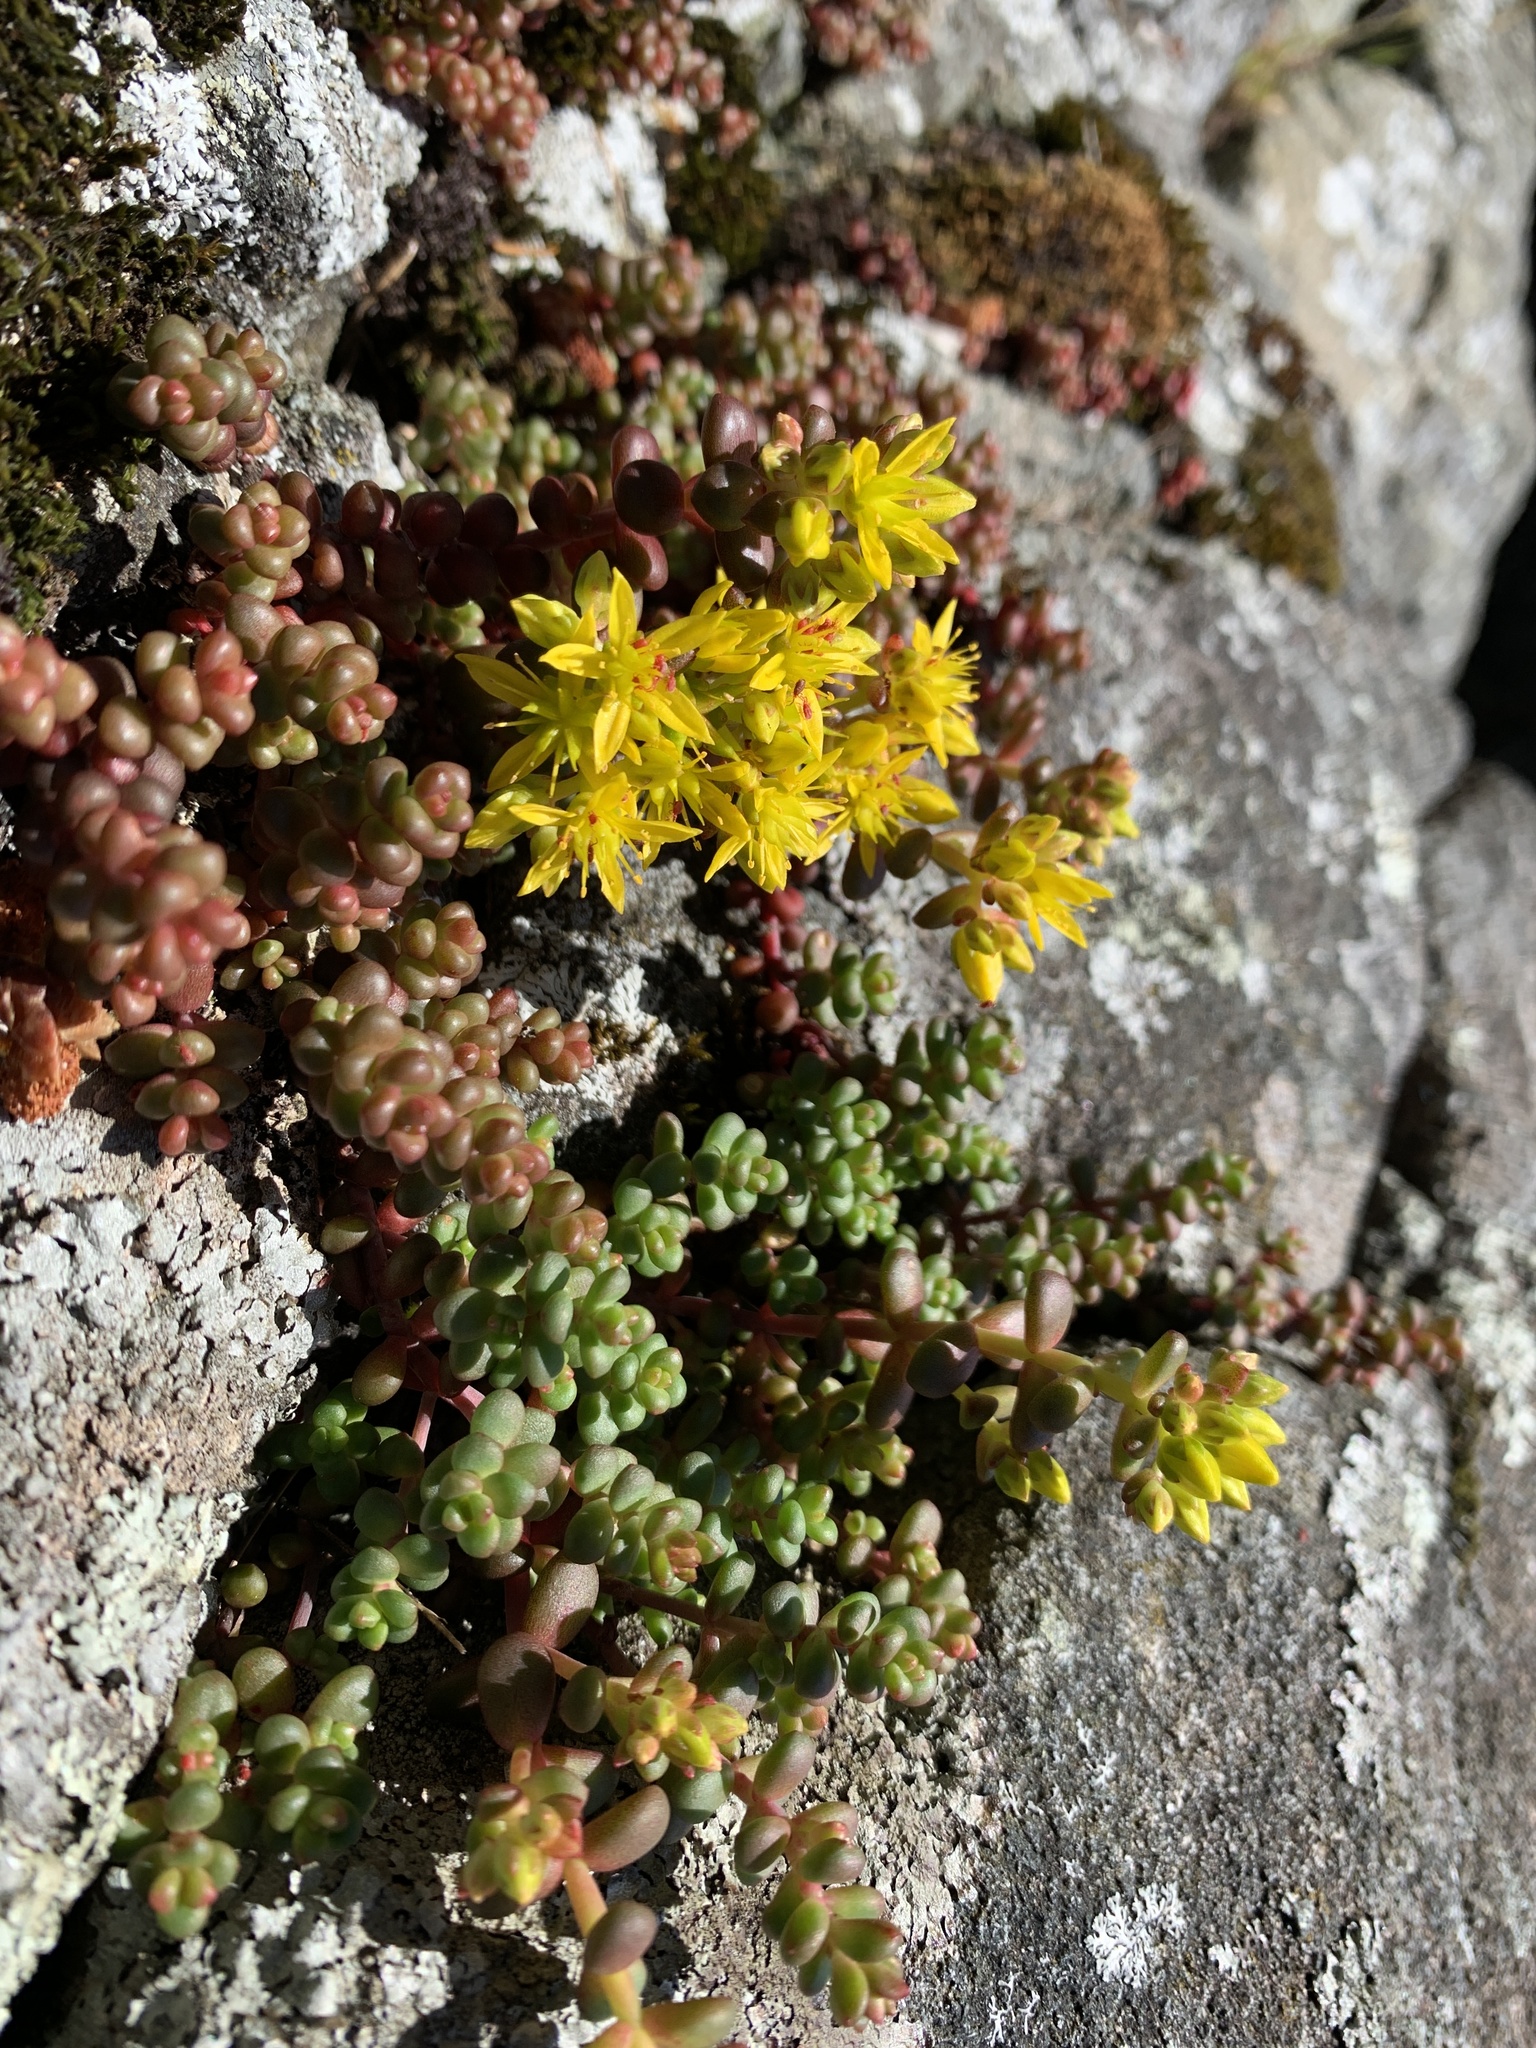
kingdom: Plantae
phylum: Tracheophyta
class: Magnoliopsida
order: Saxifragales
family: Crassulaceae
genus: Sedum
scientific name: Sedum divergens
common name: Cascade stonecrop
